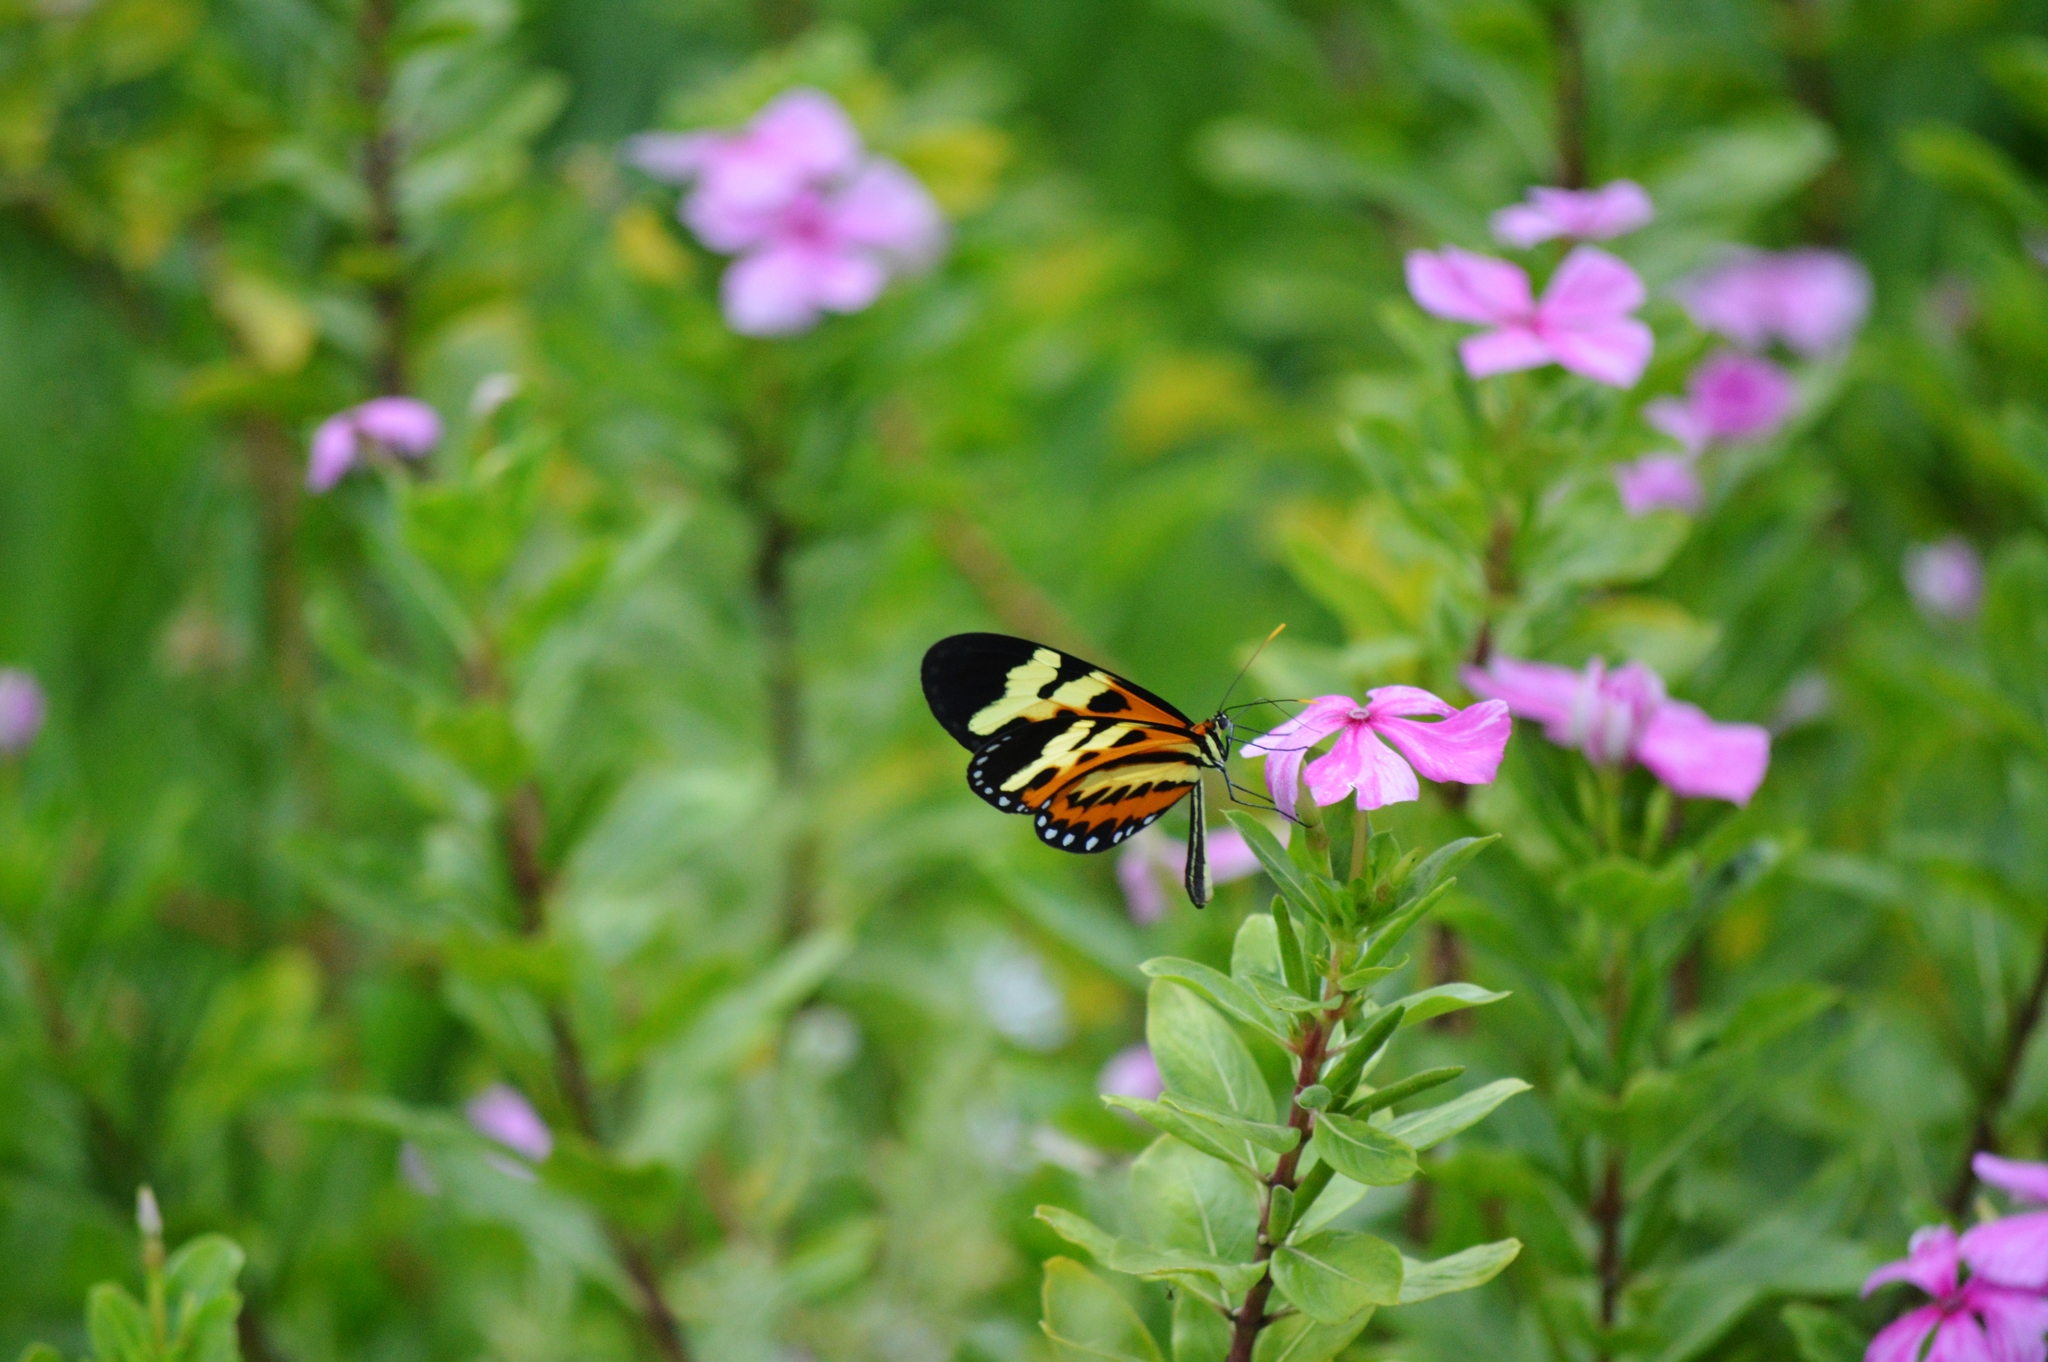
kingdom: Animalia
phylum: Arthropoda
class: Insecta
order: Lepidoptera
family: Nymphalidae
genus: Mechanitis
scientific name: Mechanitis polymnia
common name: Disturbed tigerwing
